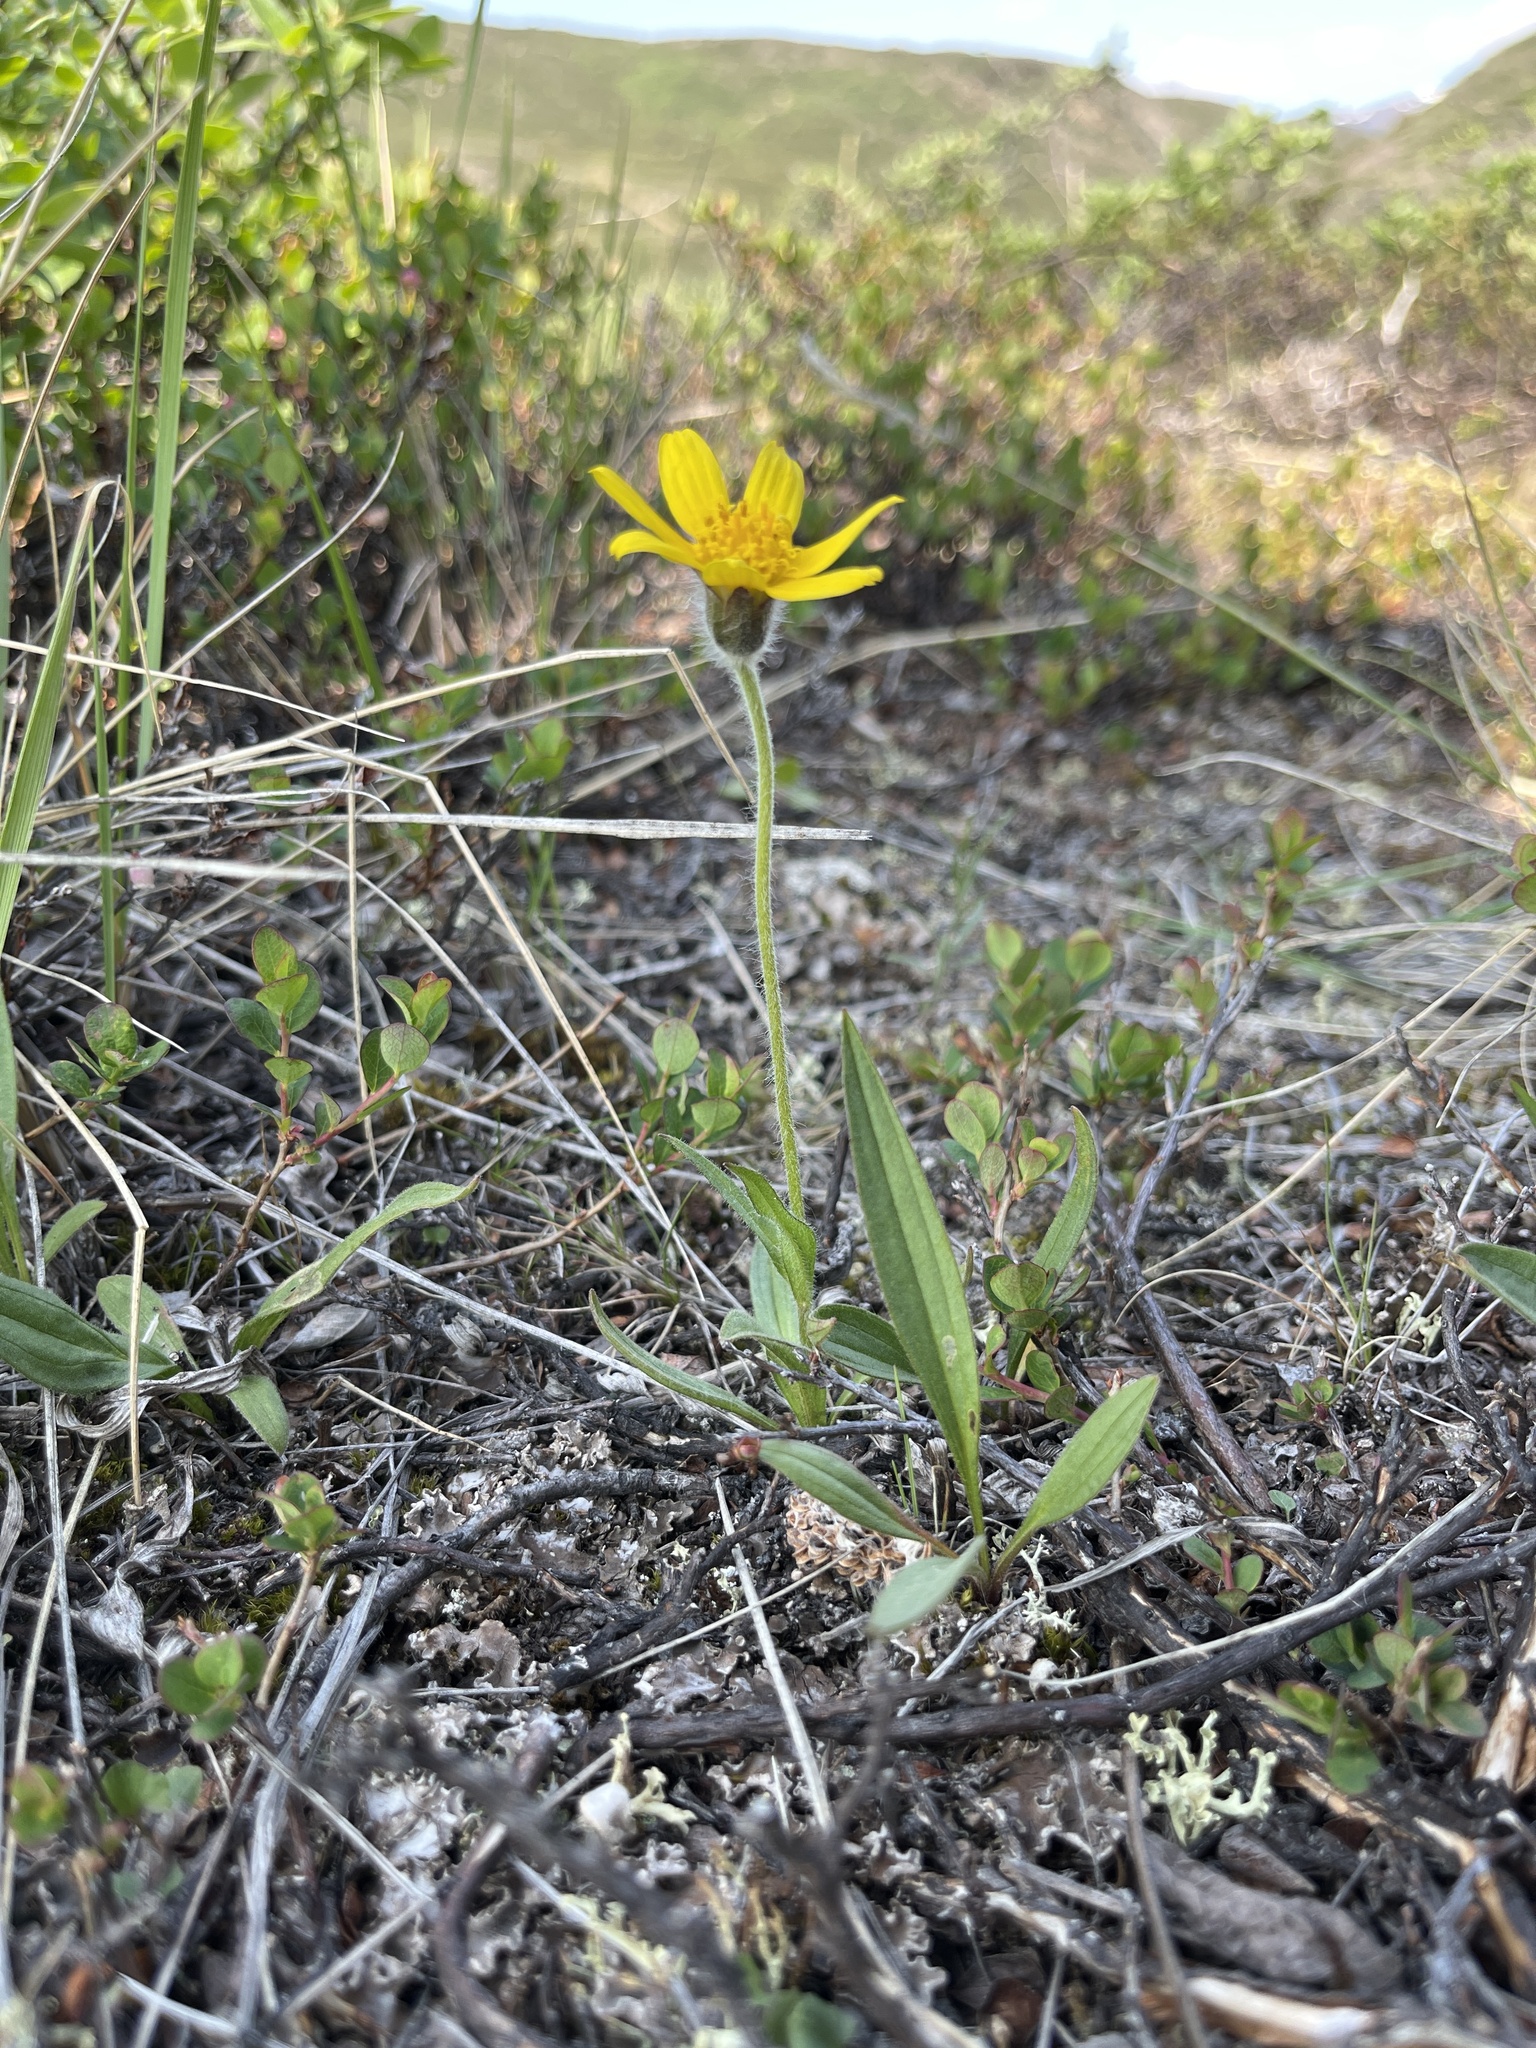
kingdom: Plantae
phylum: Tracheophyta
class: Magnoliopsida
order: Asterales
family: Asteraceae
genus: Arnica
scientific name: Arnica angustifolia
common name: Arctic arnica
